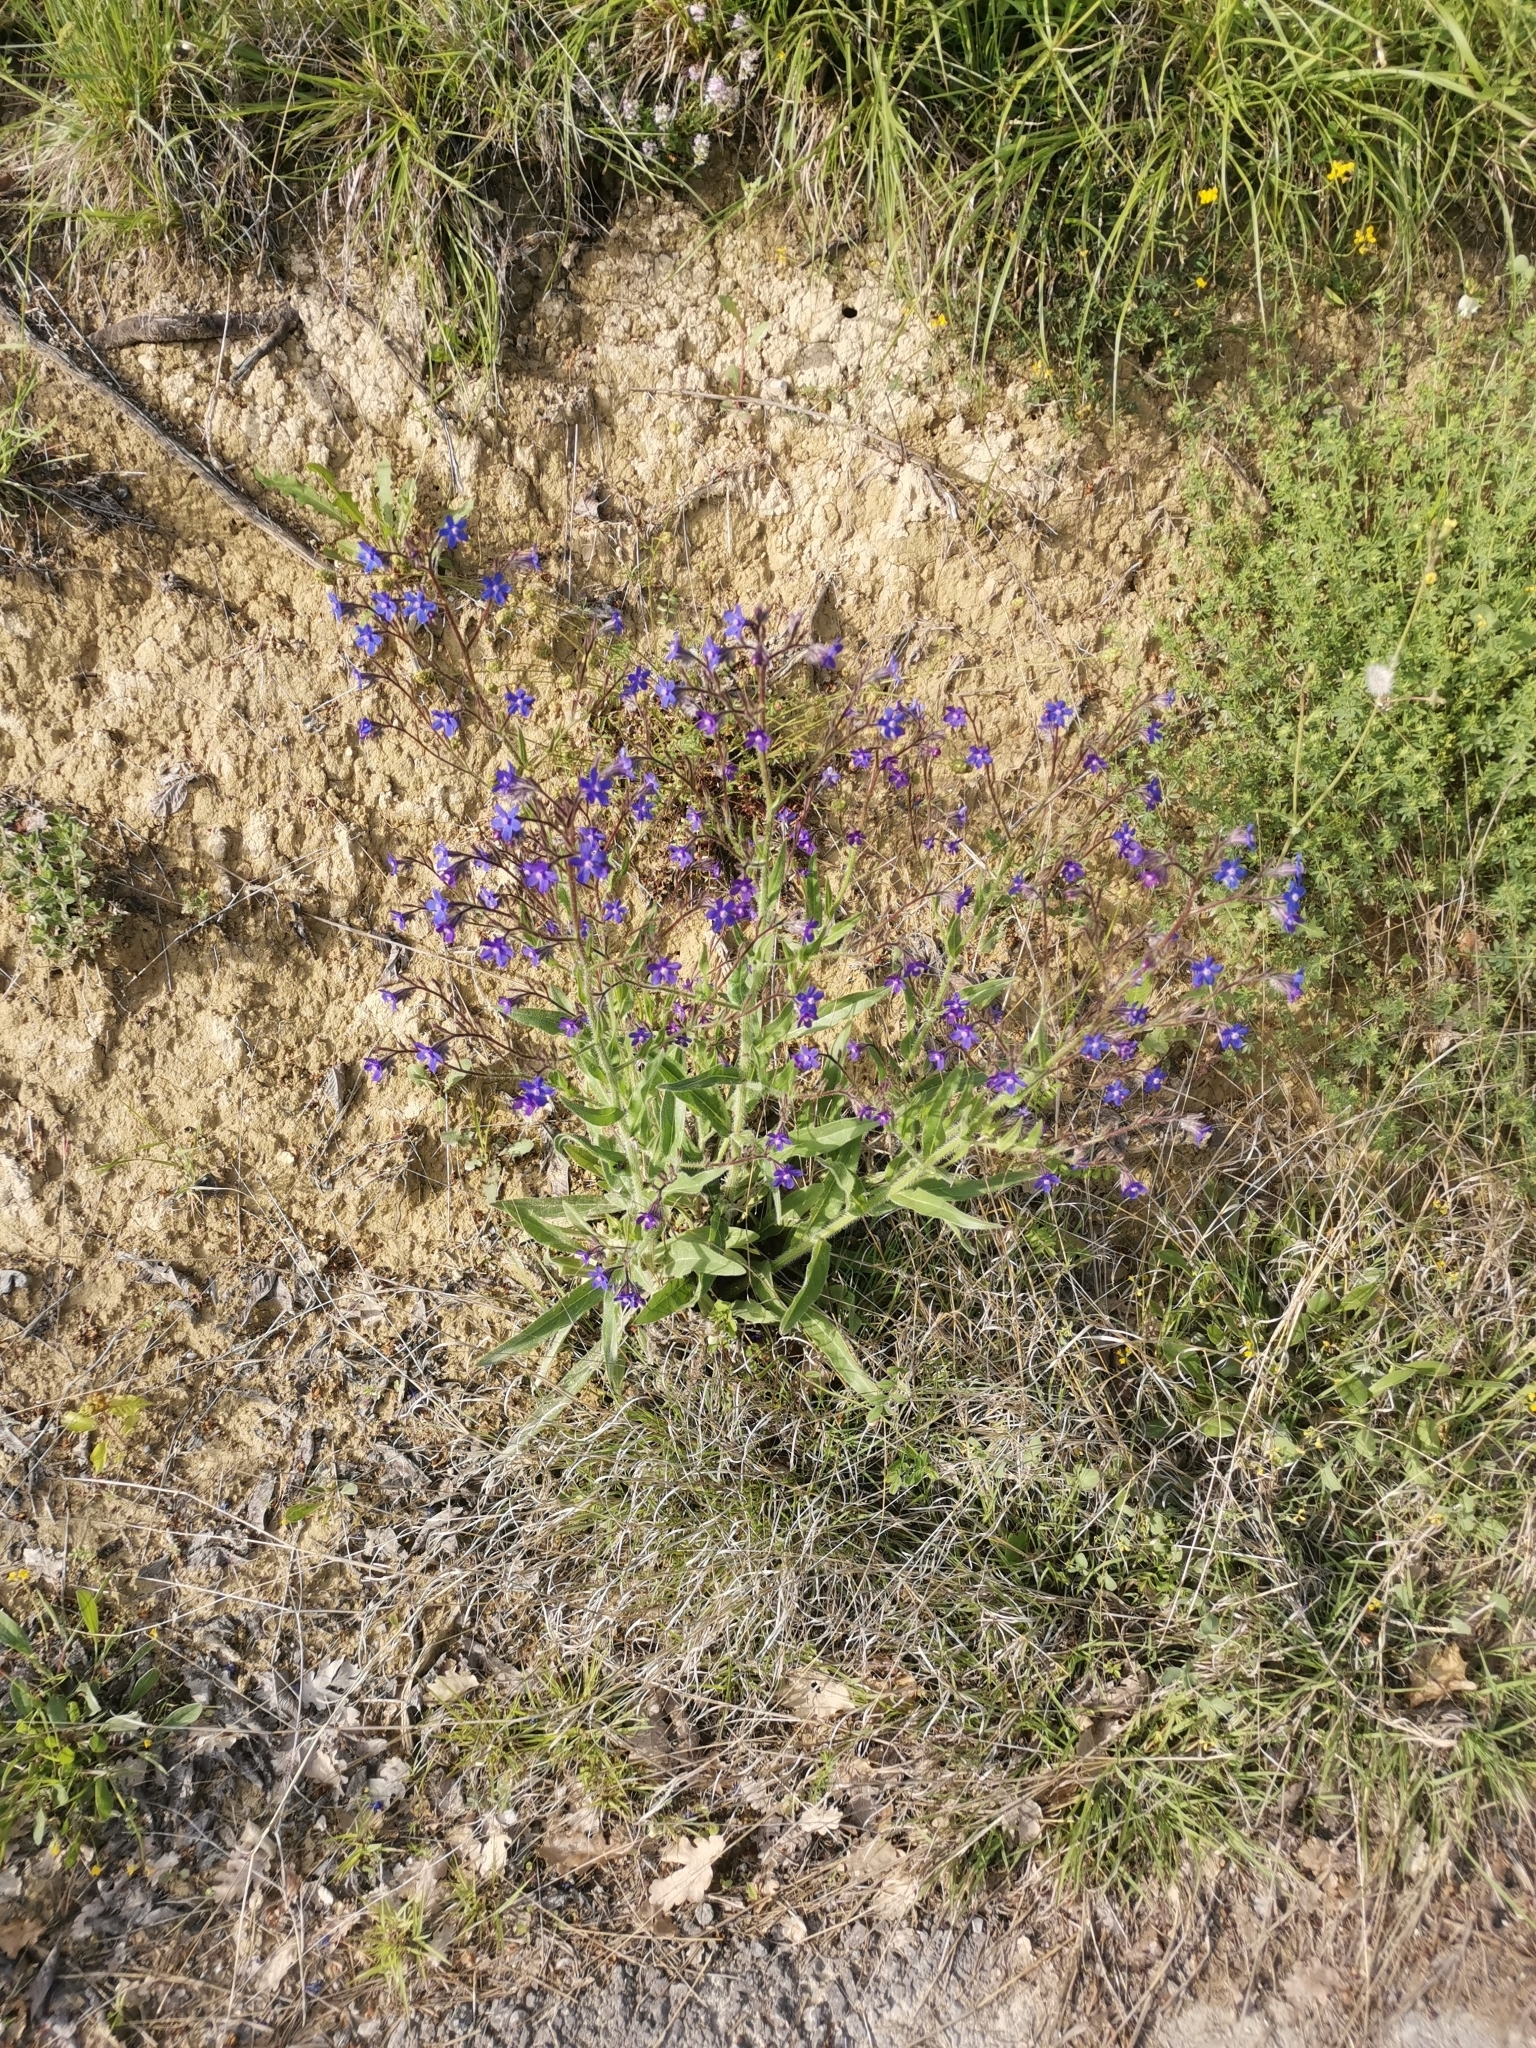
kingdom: Plantae
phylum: Tracheophyta
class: Magnoliopsida
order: Boraginales
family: Boraginaceae
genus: Anchusa
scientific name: Anchusa azurea
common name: Garden anchusa
